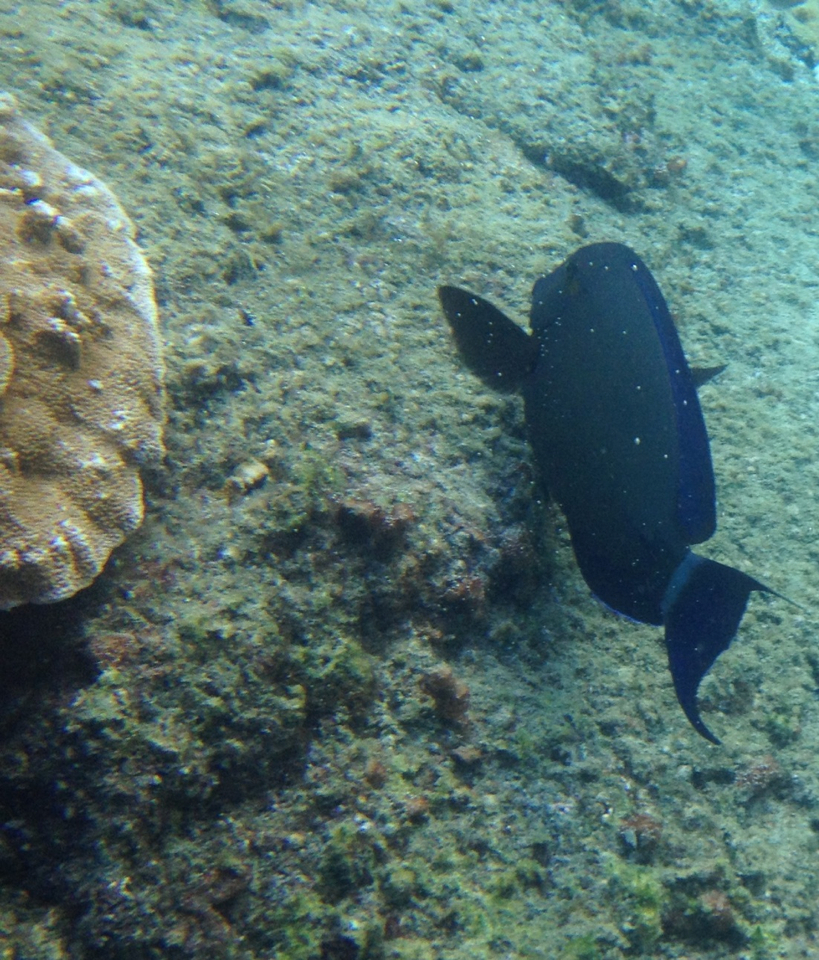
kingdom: Animalia
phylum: Chordata
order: Perciformes
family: Acanthuridae
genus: Acanthurus
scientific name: Acanthurus blochii
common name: Blue-banded pualu
